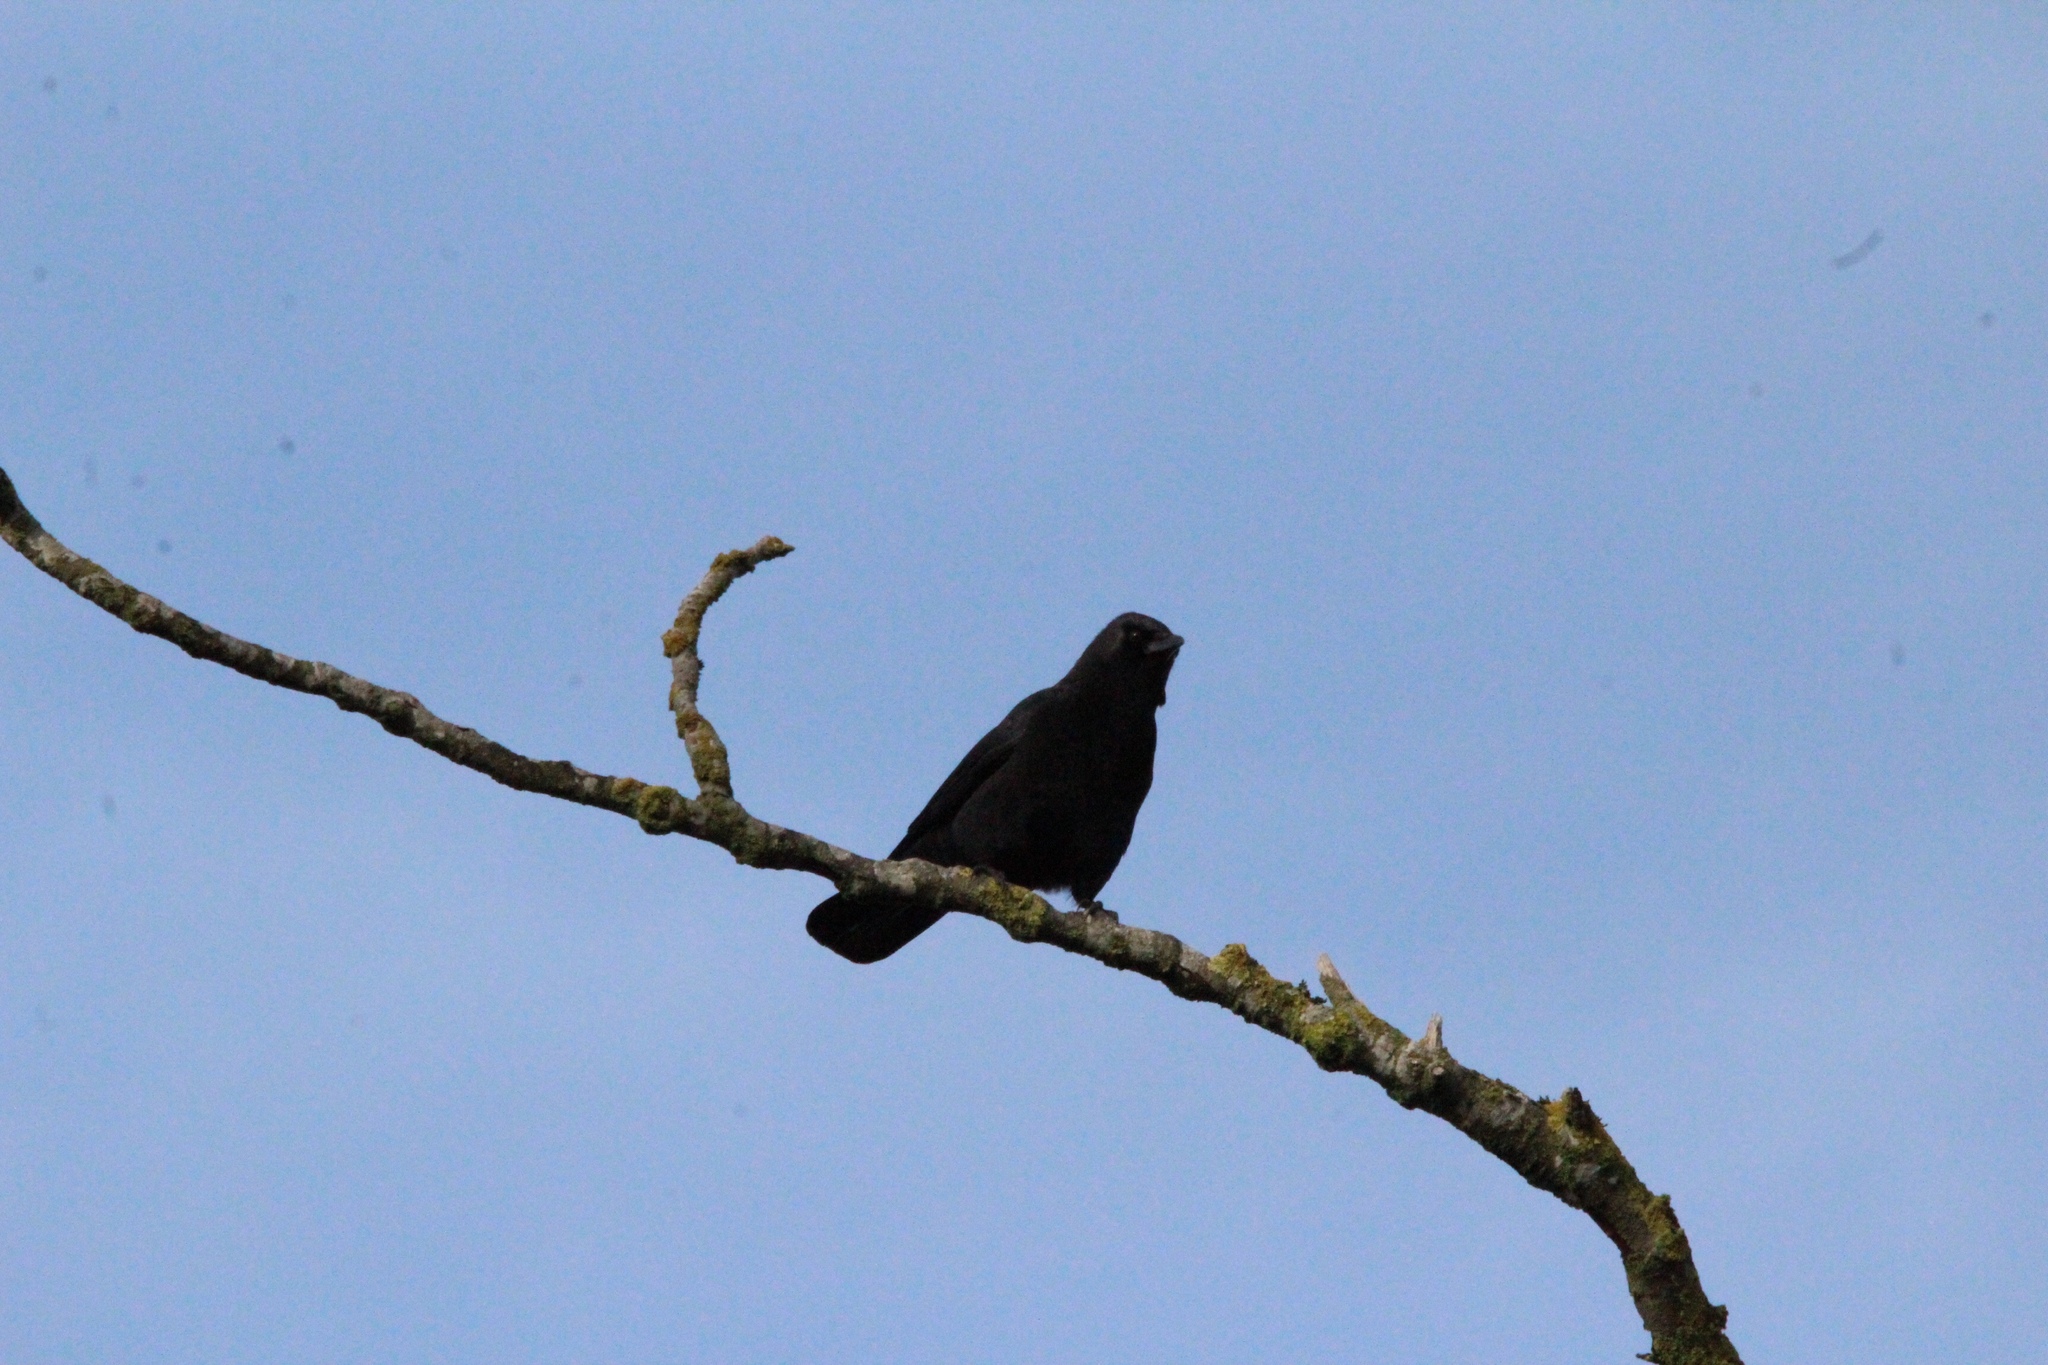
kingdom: Animalia
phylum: Chordata
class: Aves
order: Passeriformes
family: Corvidae
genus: Corvus
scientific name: Corvus brachyrhynchos
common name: American crow
